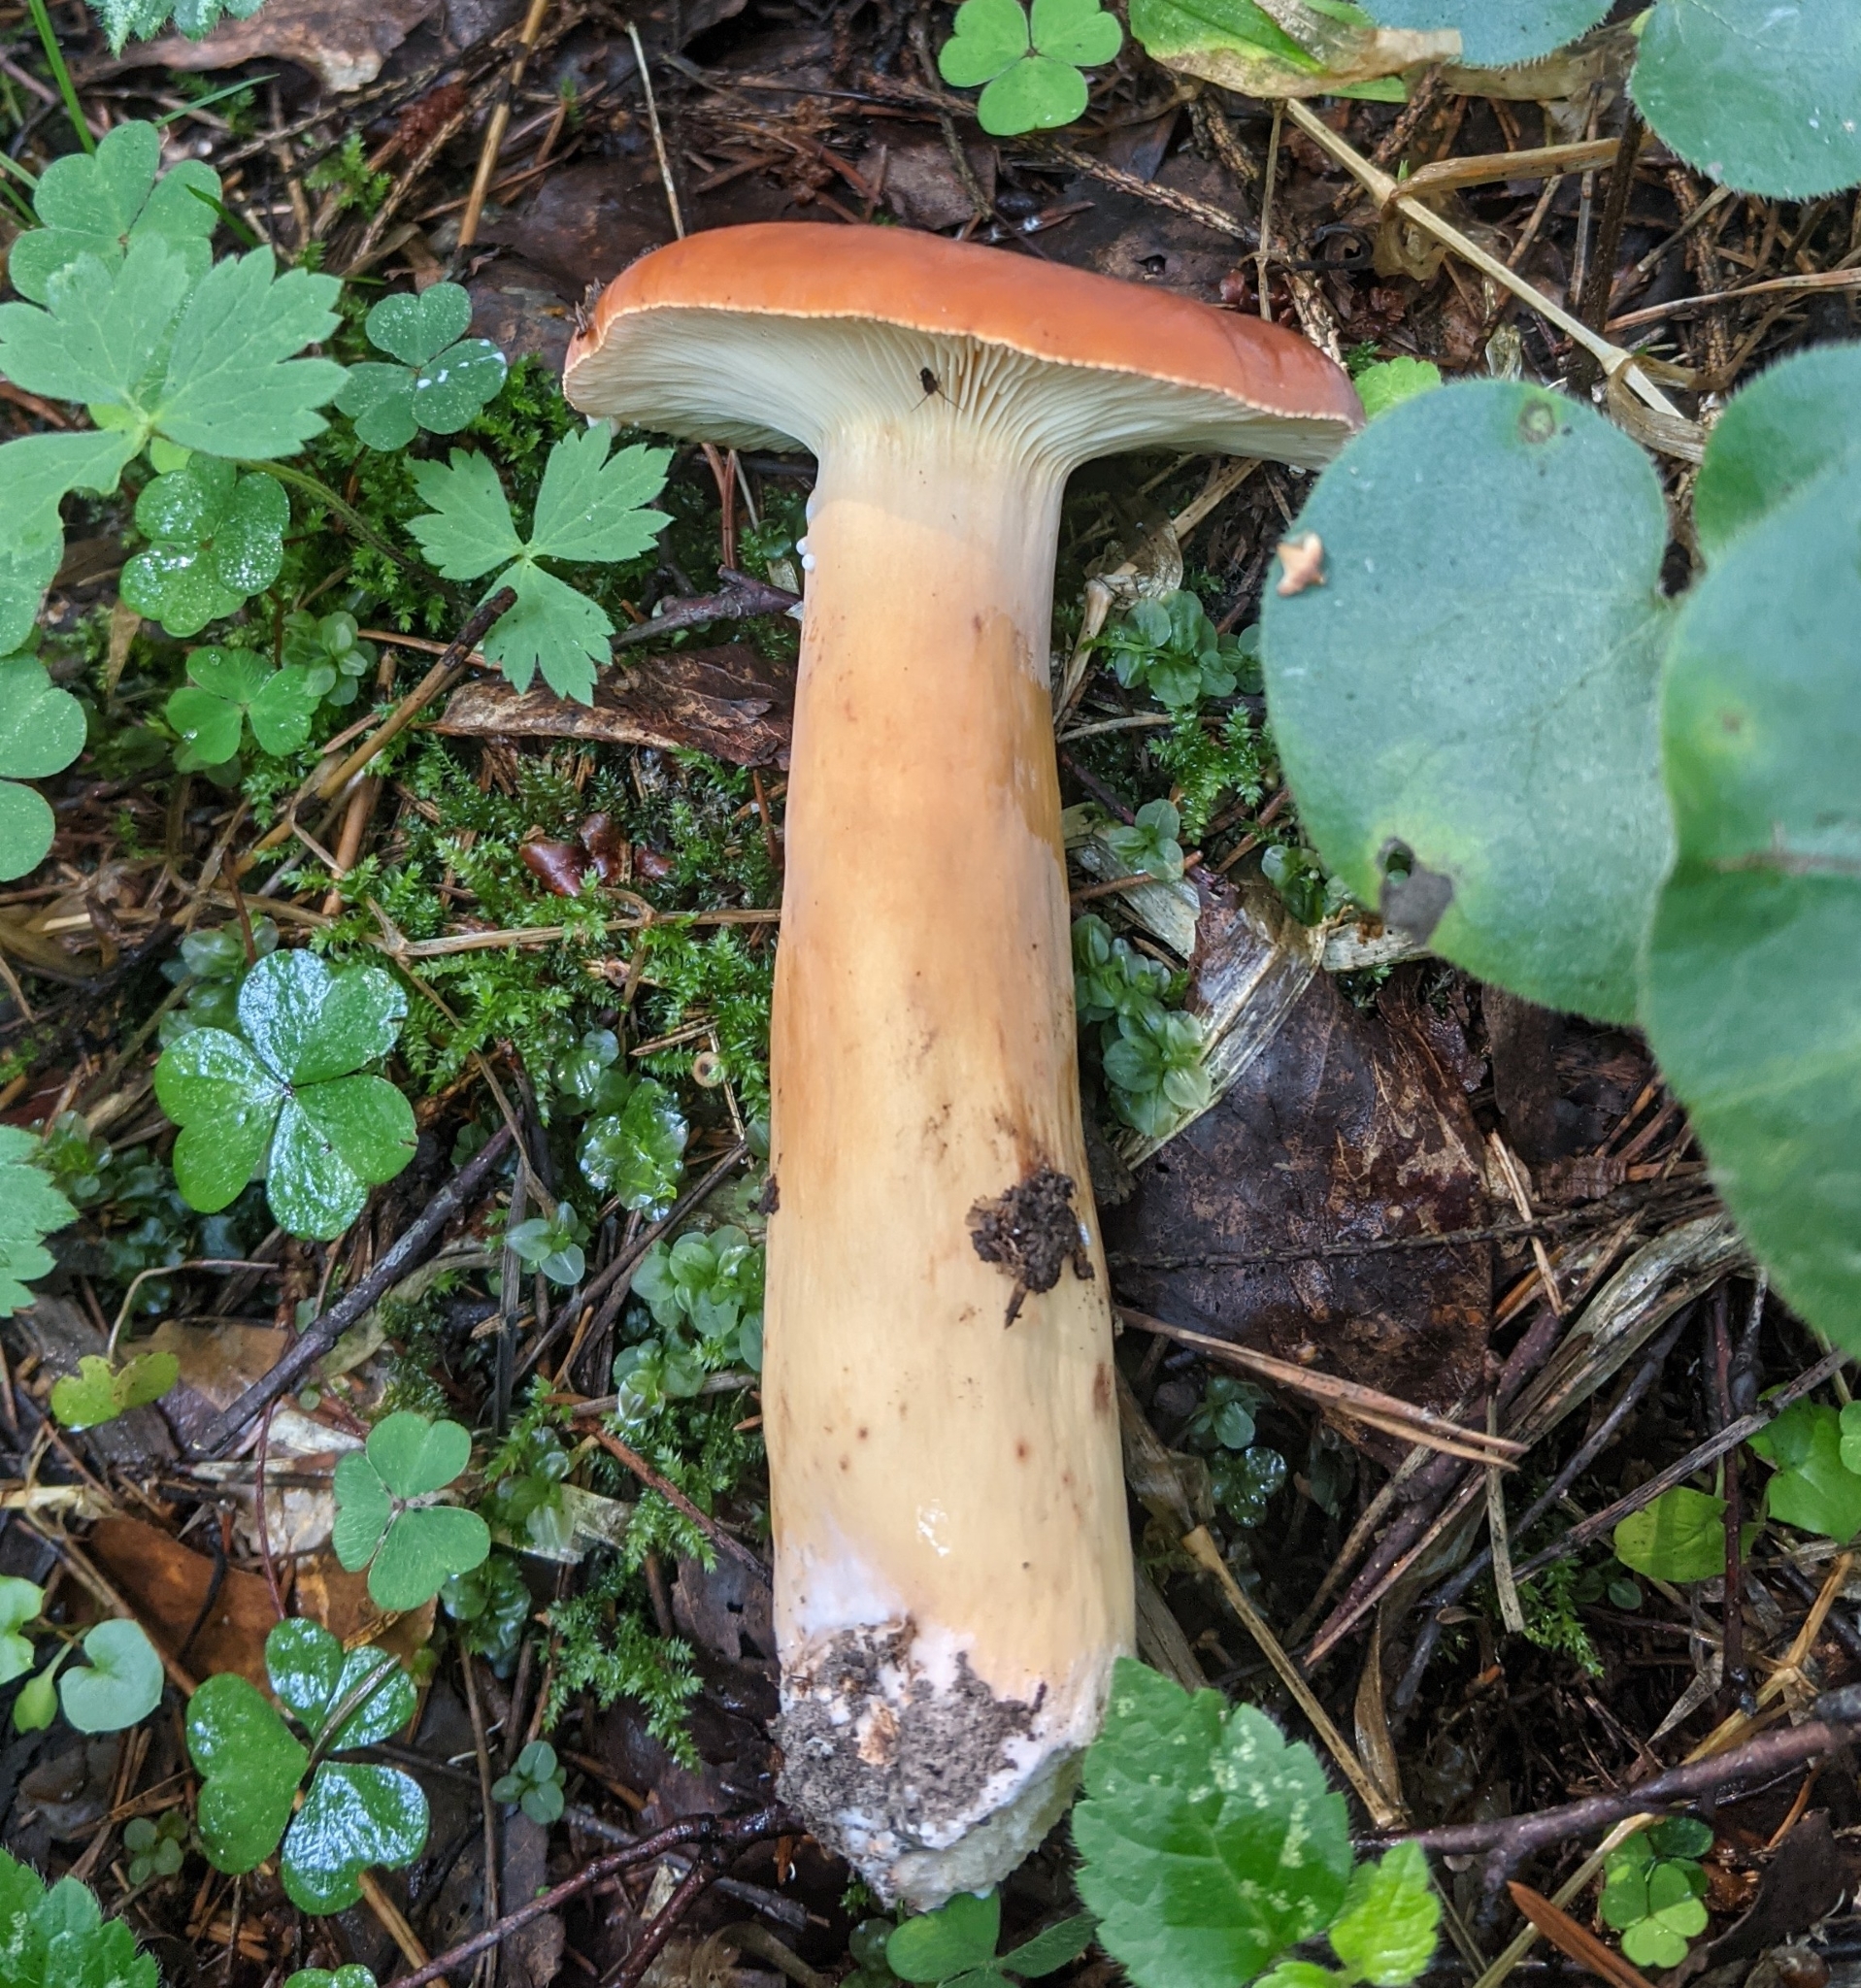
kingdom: Fungi
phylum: Basidiomycota
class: Agaricomycetes
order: Russulales
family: Russulaceae
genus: Lactifluus
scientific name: Lactifluus volemus
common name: Fishy milkcap
